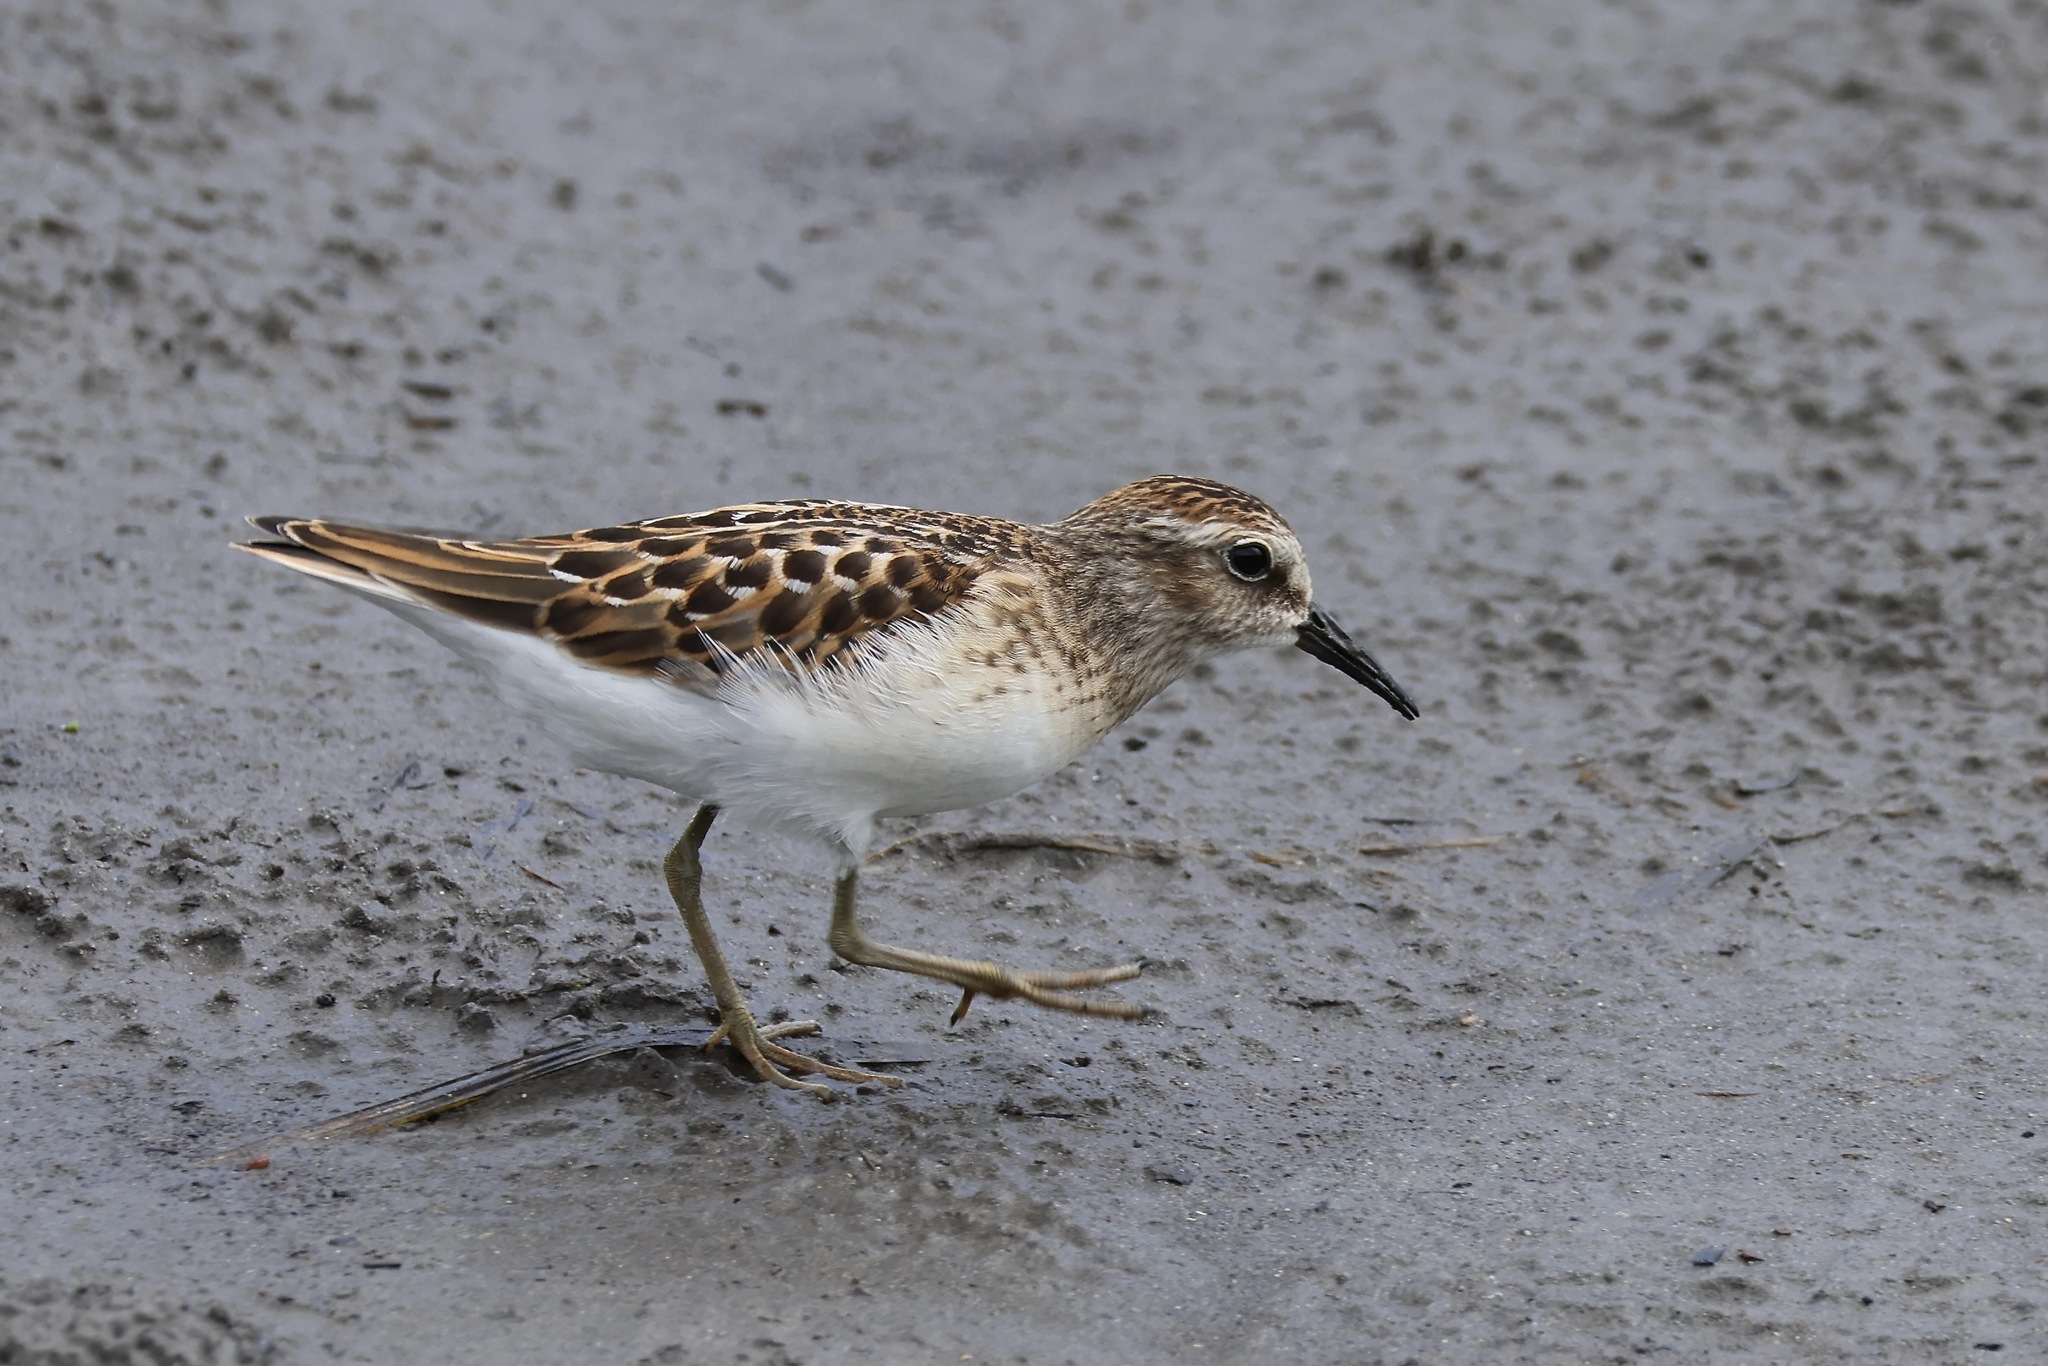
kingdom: Animalia
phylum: Chordata
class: Aves
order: Charadriiformes
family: Scolopacidae
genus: Calidris
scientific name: Calidris minutilla
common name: Least sandpiper
